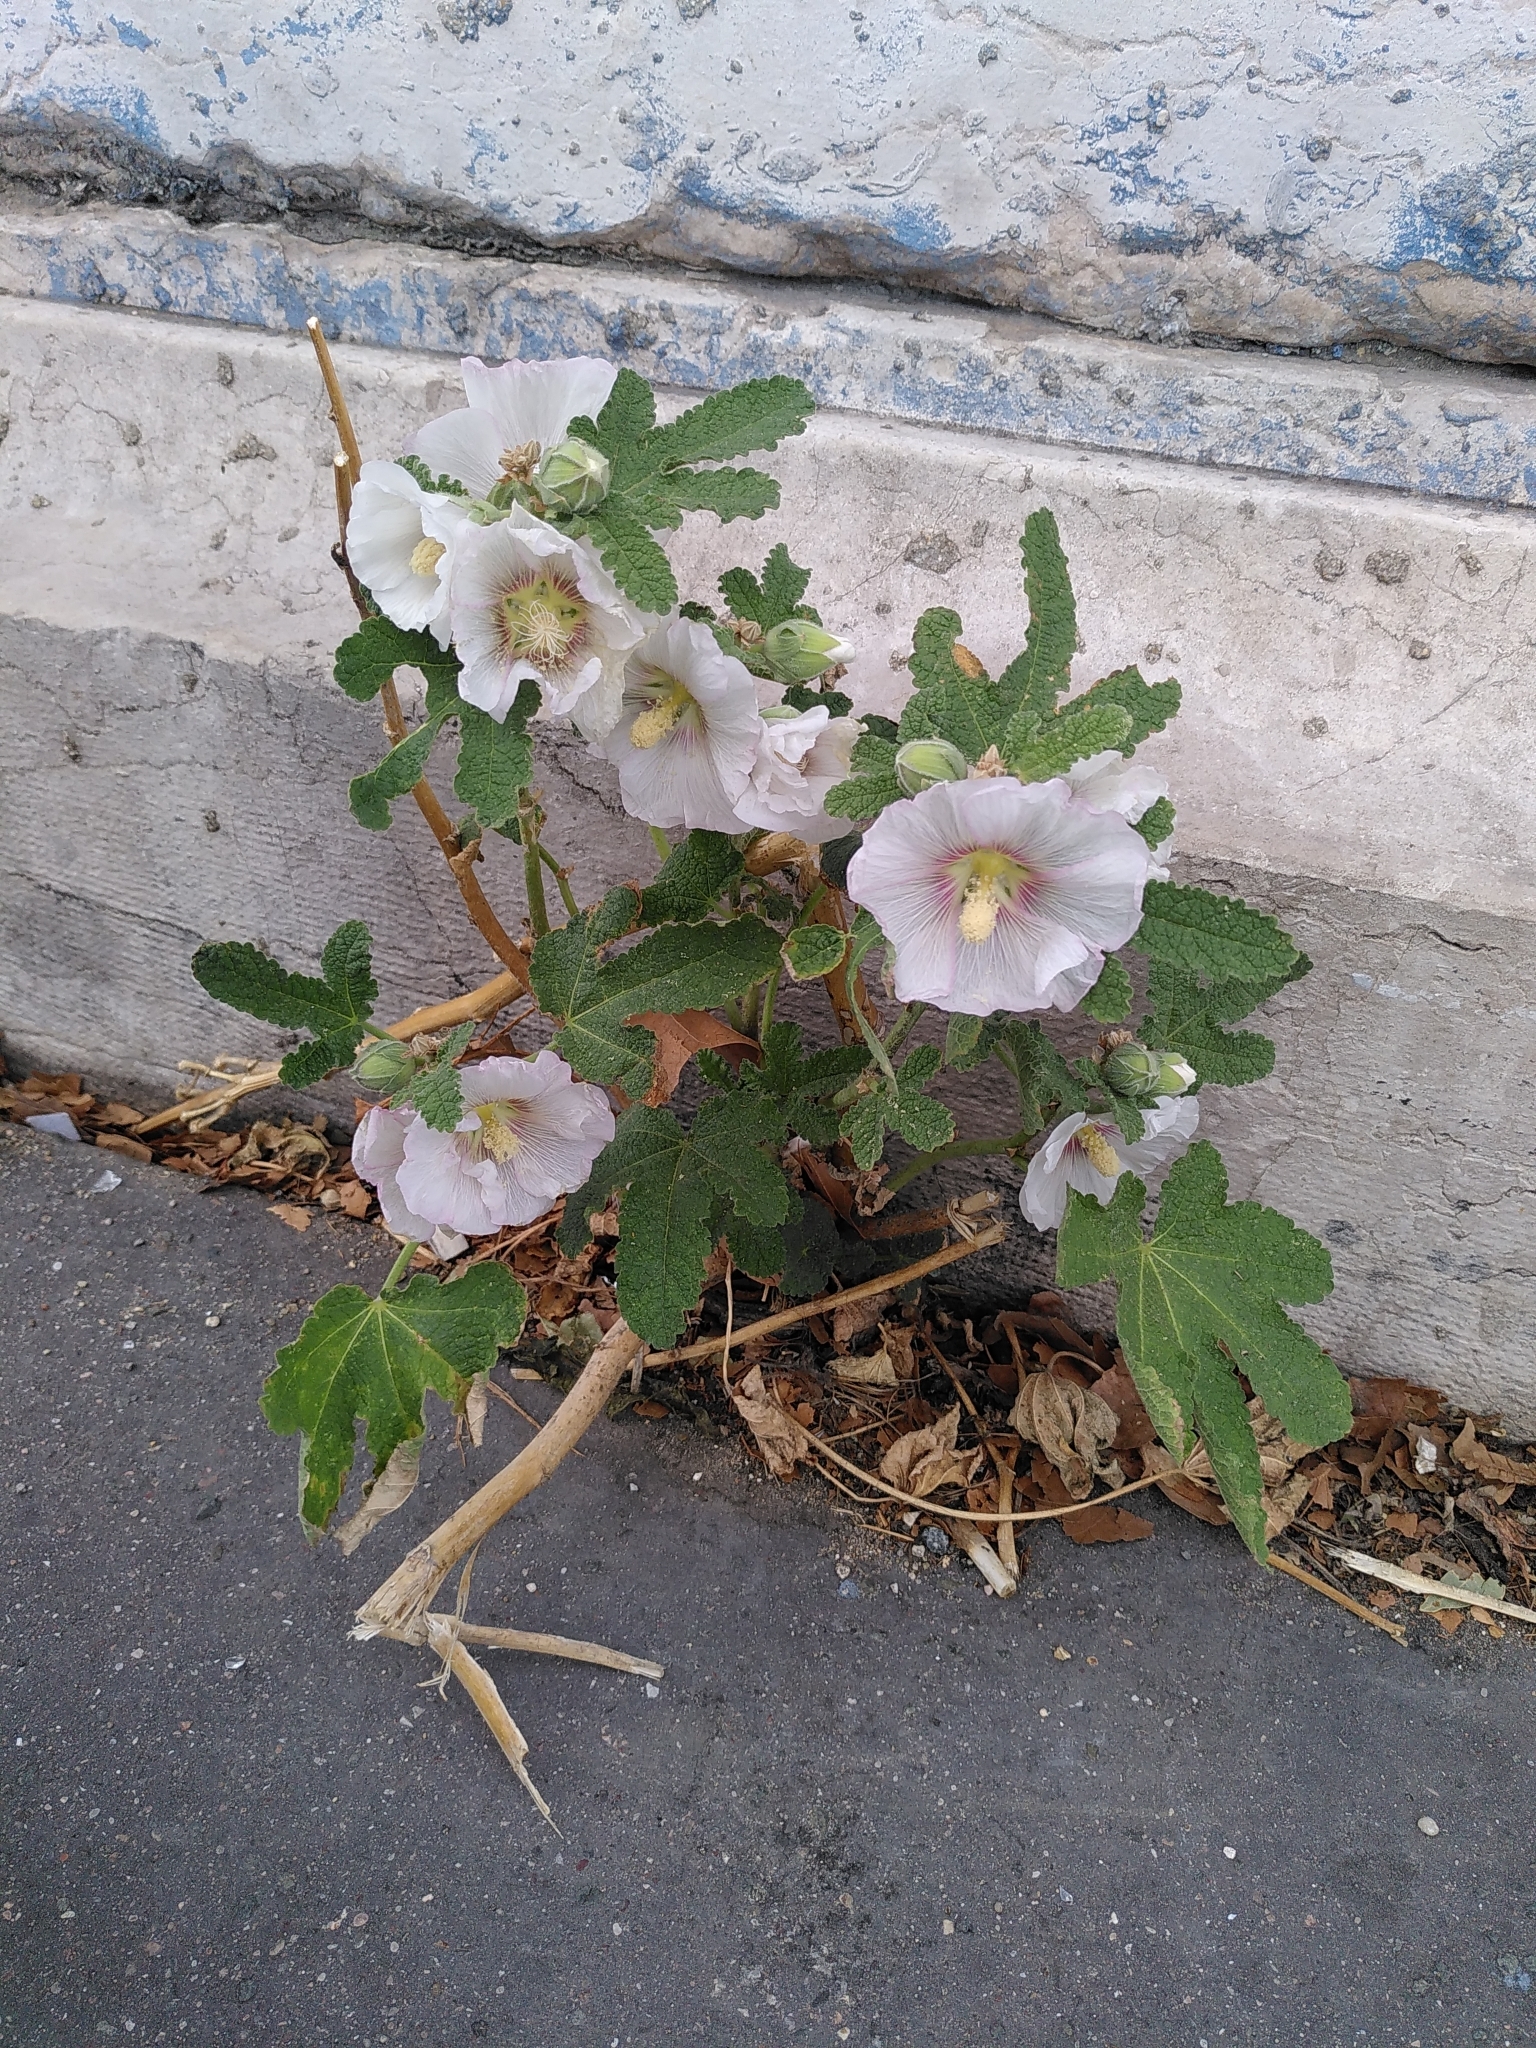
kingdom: Plantae
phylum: Tracheophyta
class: Magnoliopsida
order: Malvales
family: Malvaceae
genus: Alcea
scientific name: Alcea rosea
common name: Hollyhock
